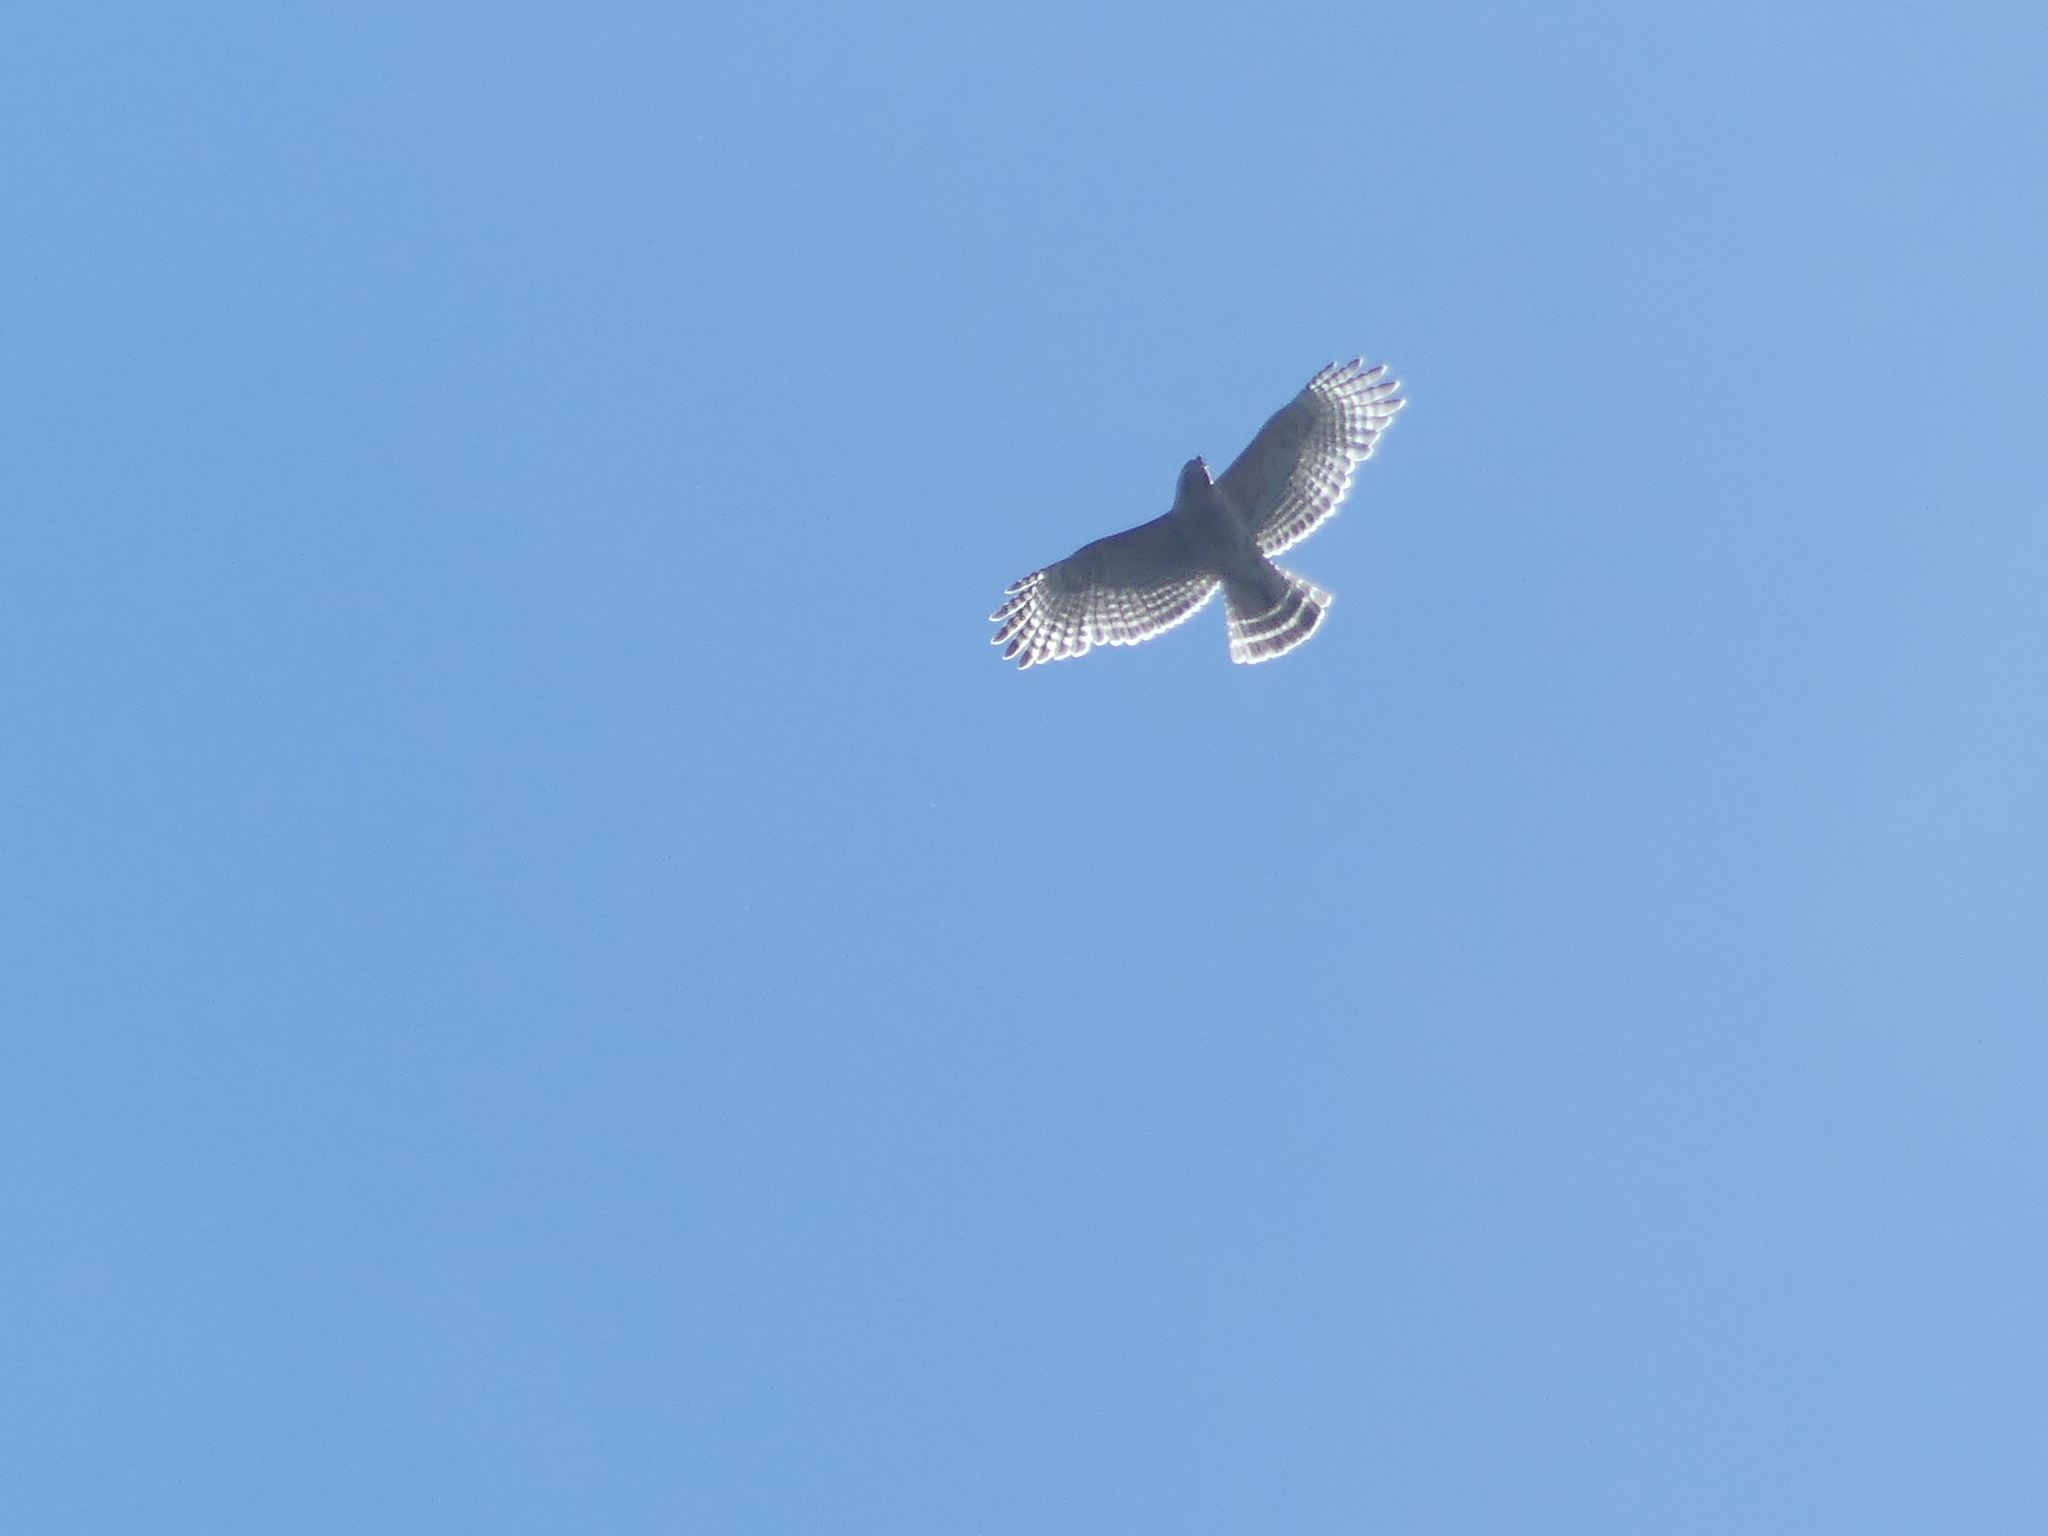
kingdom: Animalia
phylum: Chordata
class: Aves
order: Accipitriformes
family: Accipitridae
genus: Buteo
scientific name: Buteo lineatus
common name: Red-shouldered hawk
